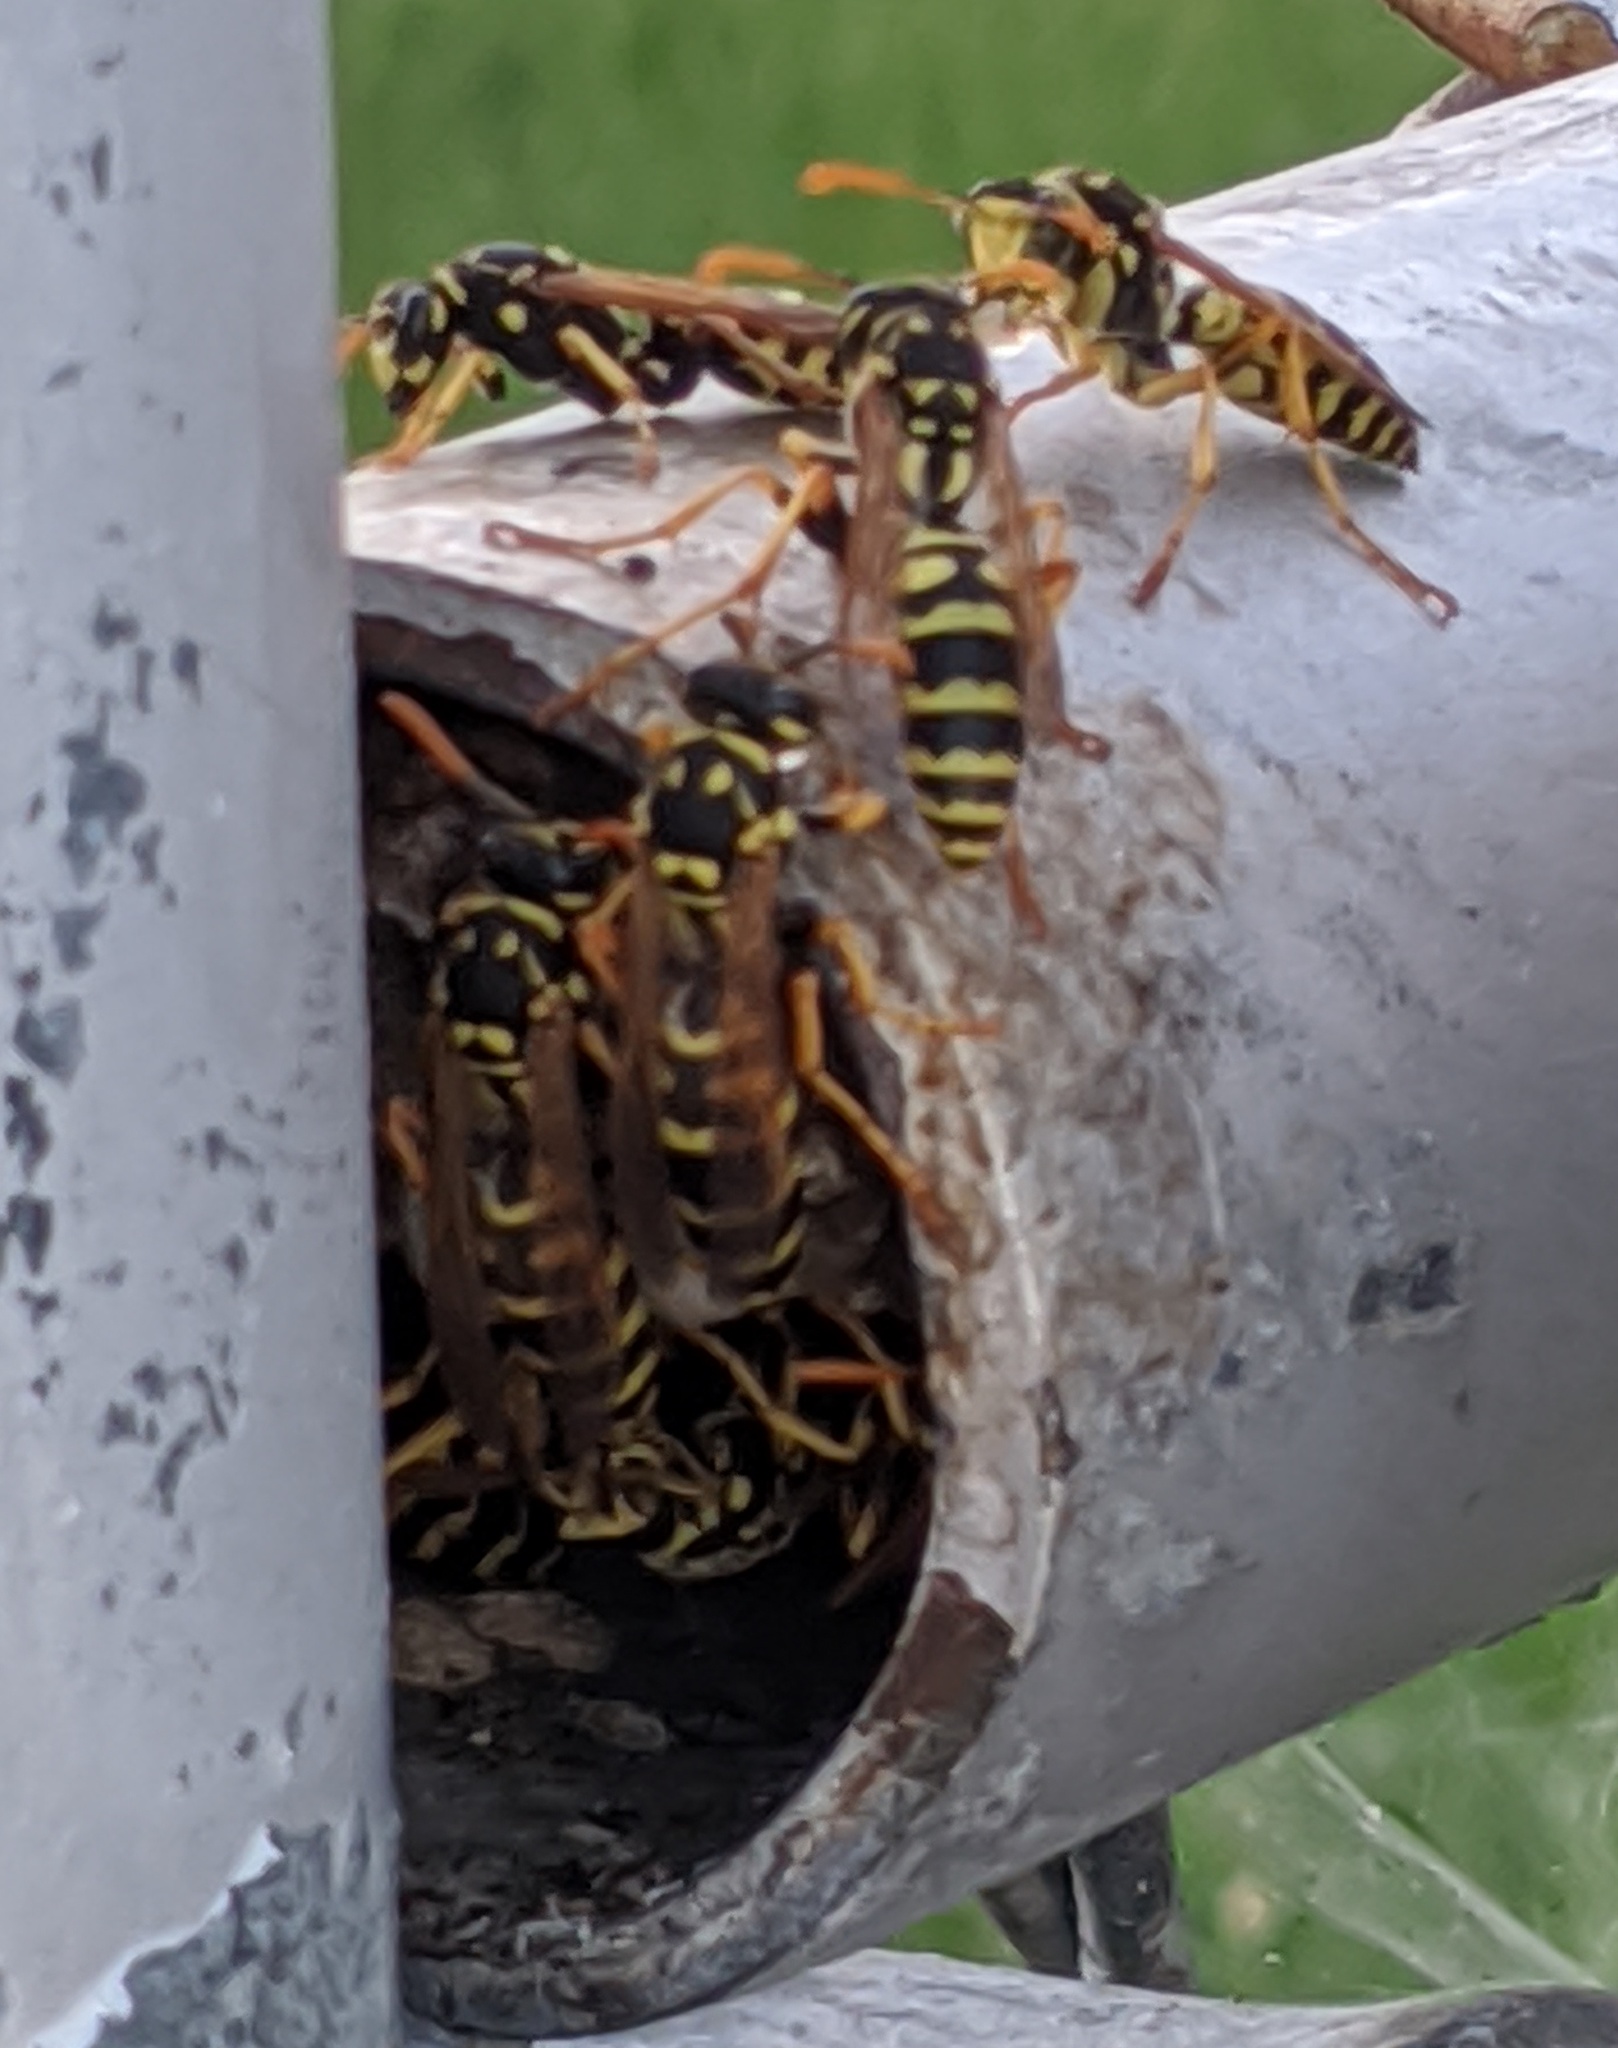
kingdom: Animalia
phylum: Arthropoda
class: Insecta
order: Hymenoptera
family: Eumenidae
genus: Polistes
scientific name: Polistes dominula
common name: Paper wasp
